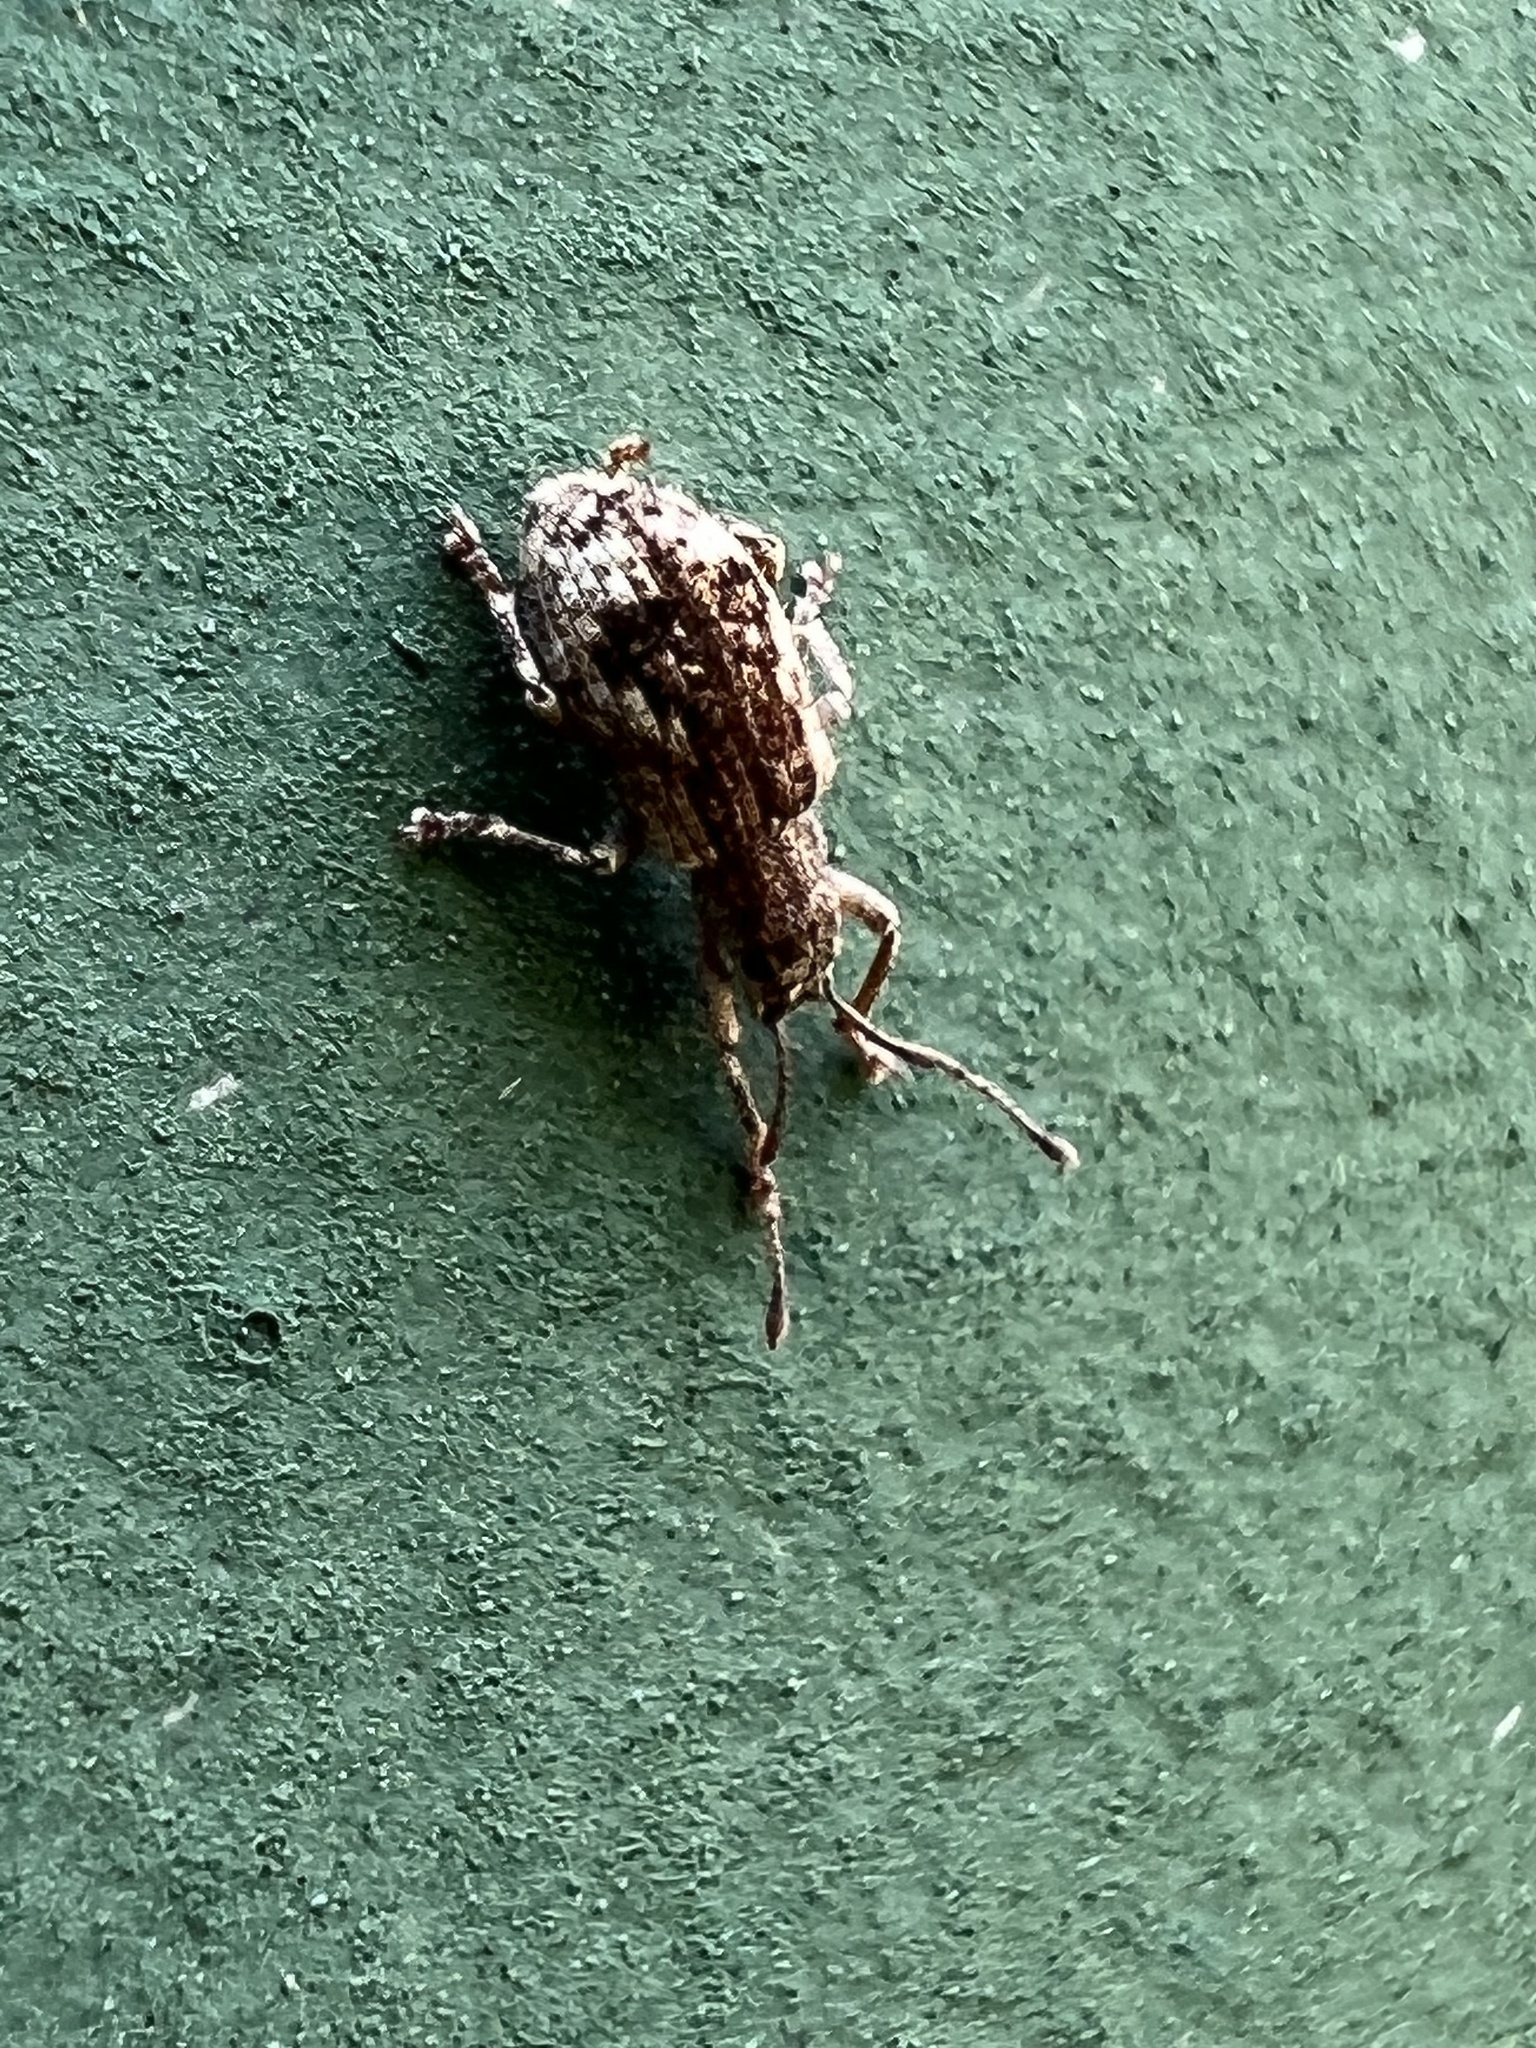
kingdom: Animalia
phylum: Arthropoda
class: Insecta
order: Coleoptera
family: Curculionidae
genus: Pseudoedophrys
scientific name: Pseudoedophrys hilleri
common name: Weevil
